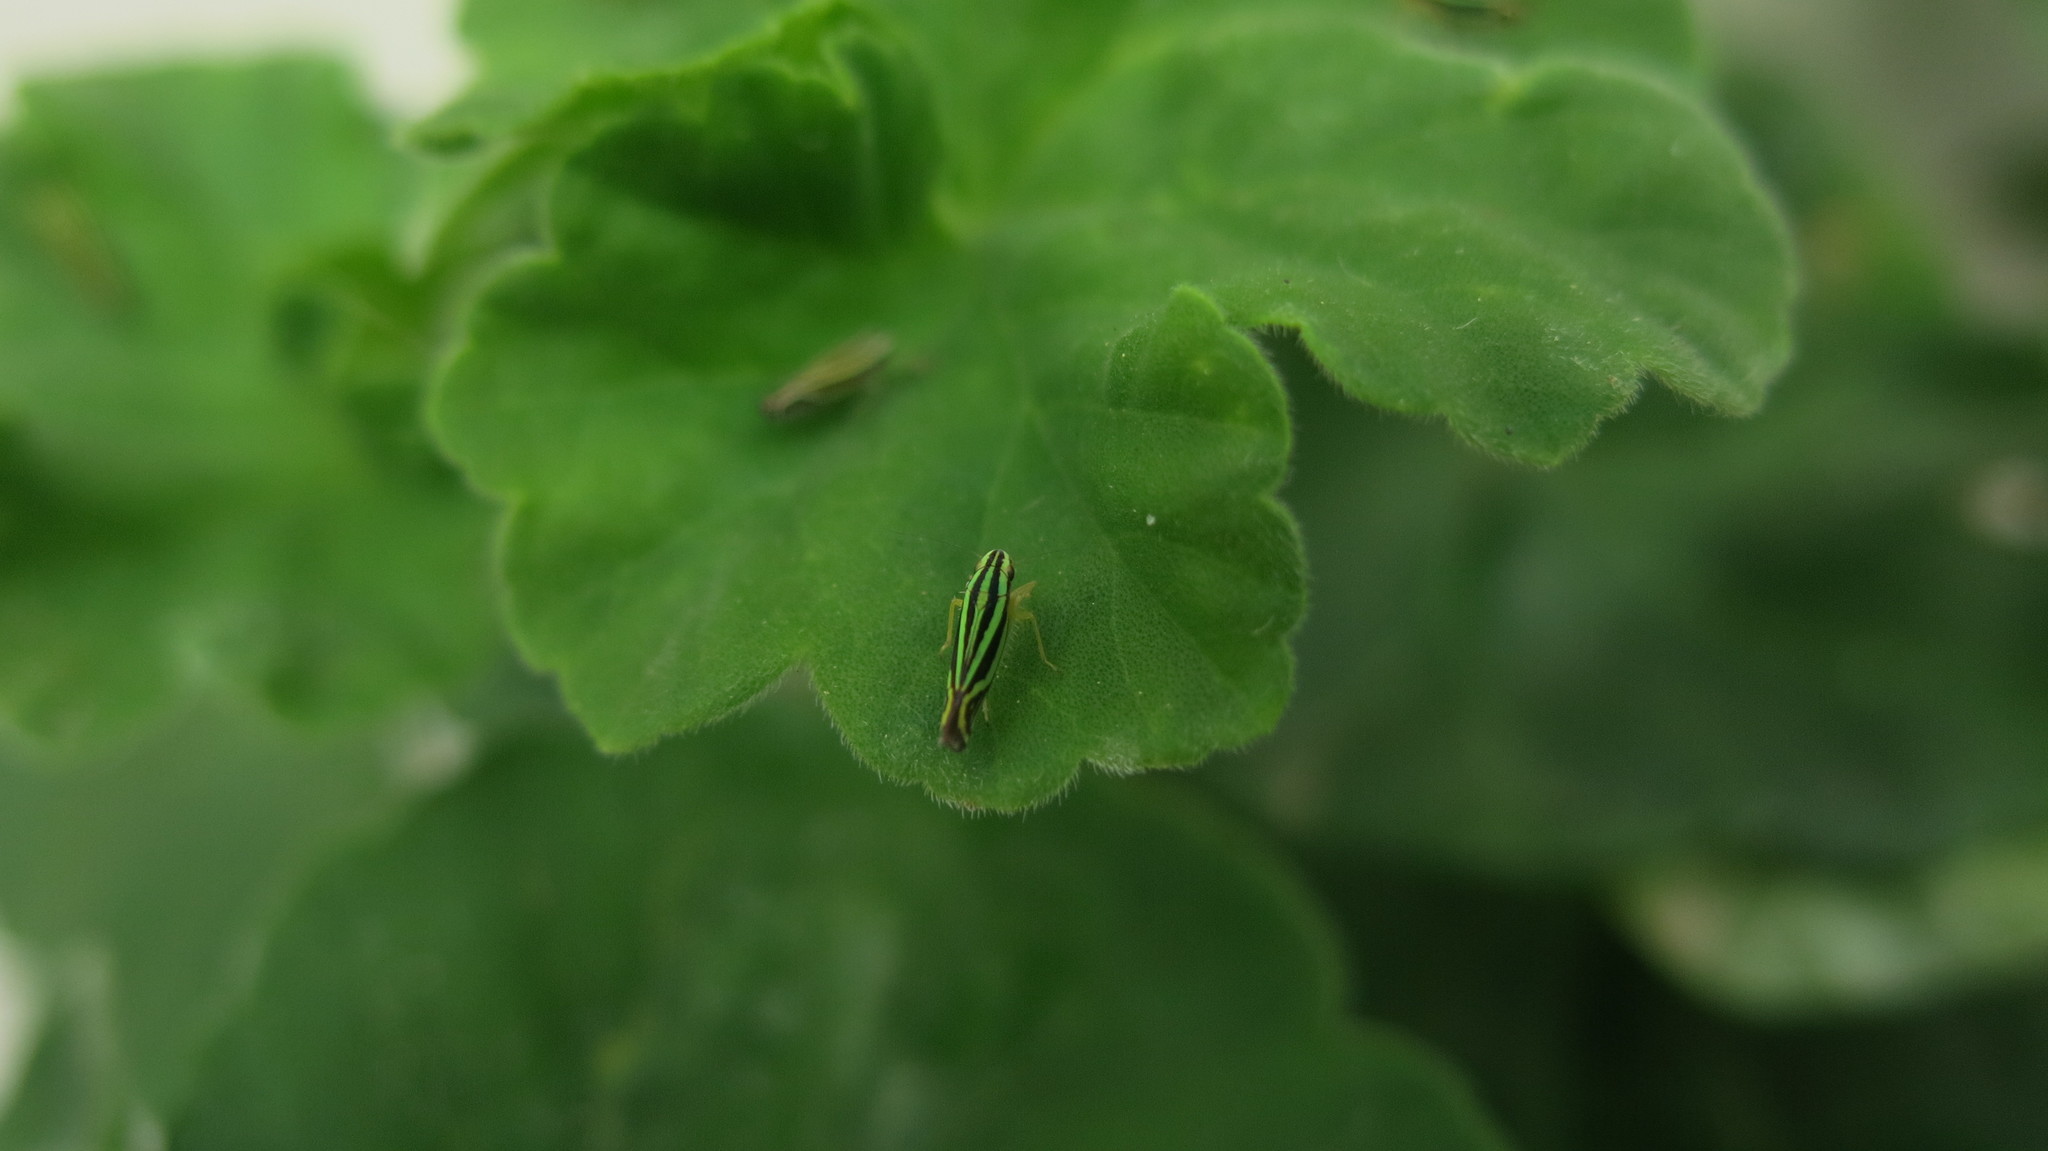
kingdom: Animalia
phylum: Arthropoda
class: Insecta
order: Hemiptera
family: Cicadellidae
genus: Sibovia
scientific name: Sibovia sagata
